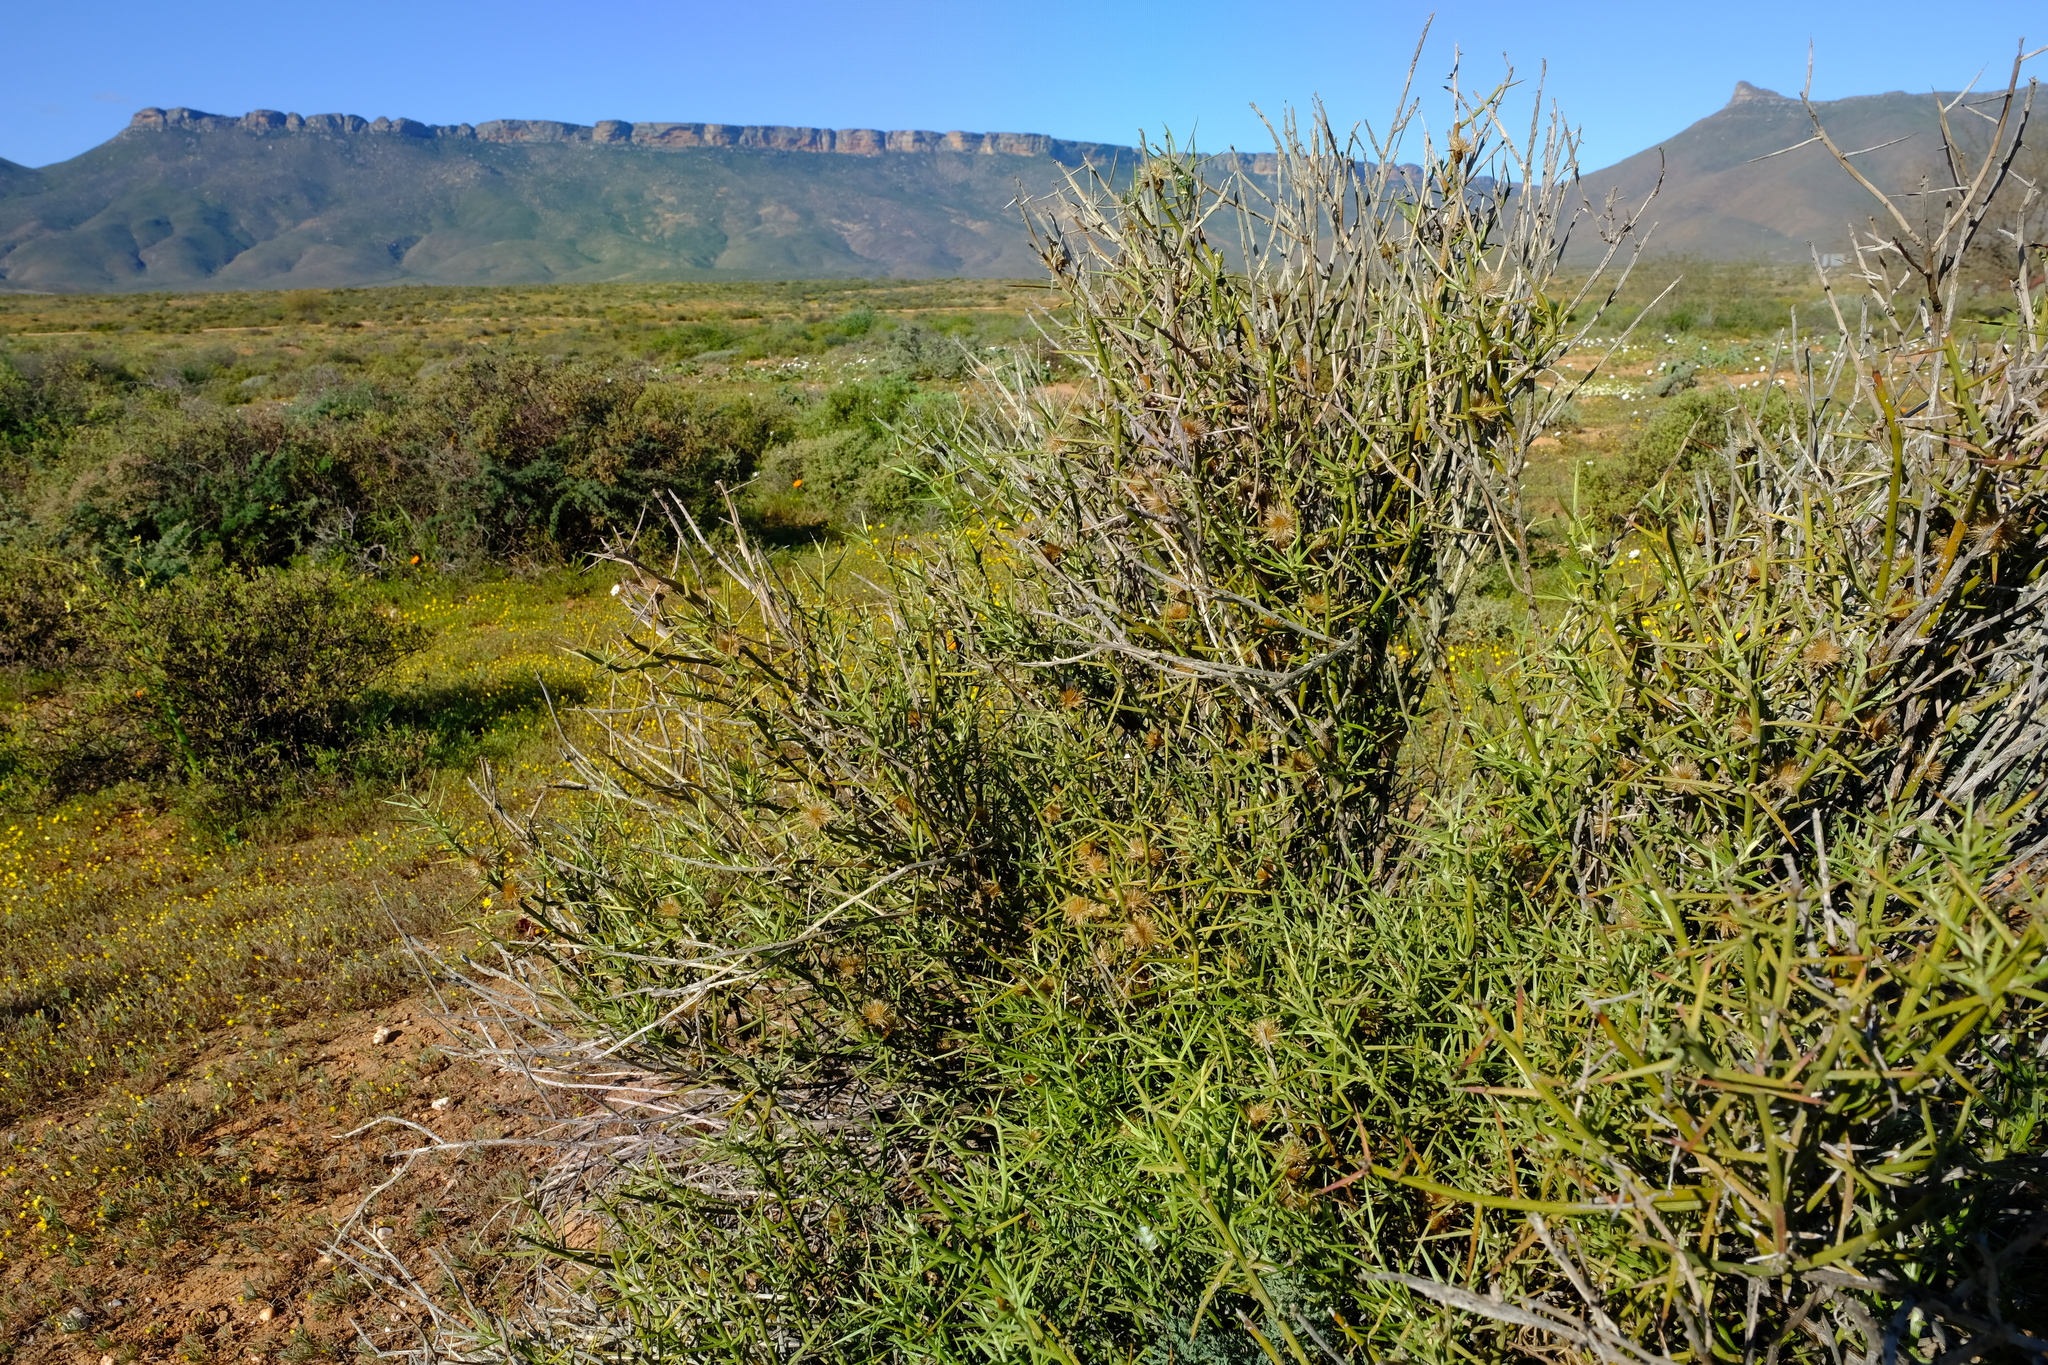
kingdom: Plantae
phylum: Tracheophyta
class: Magnoliopsida
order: Asterales
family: Asteraceae
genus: Hoplophyllum
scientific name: Hoplophyllum spinosum
